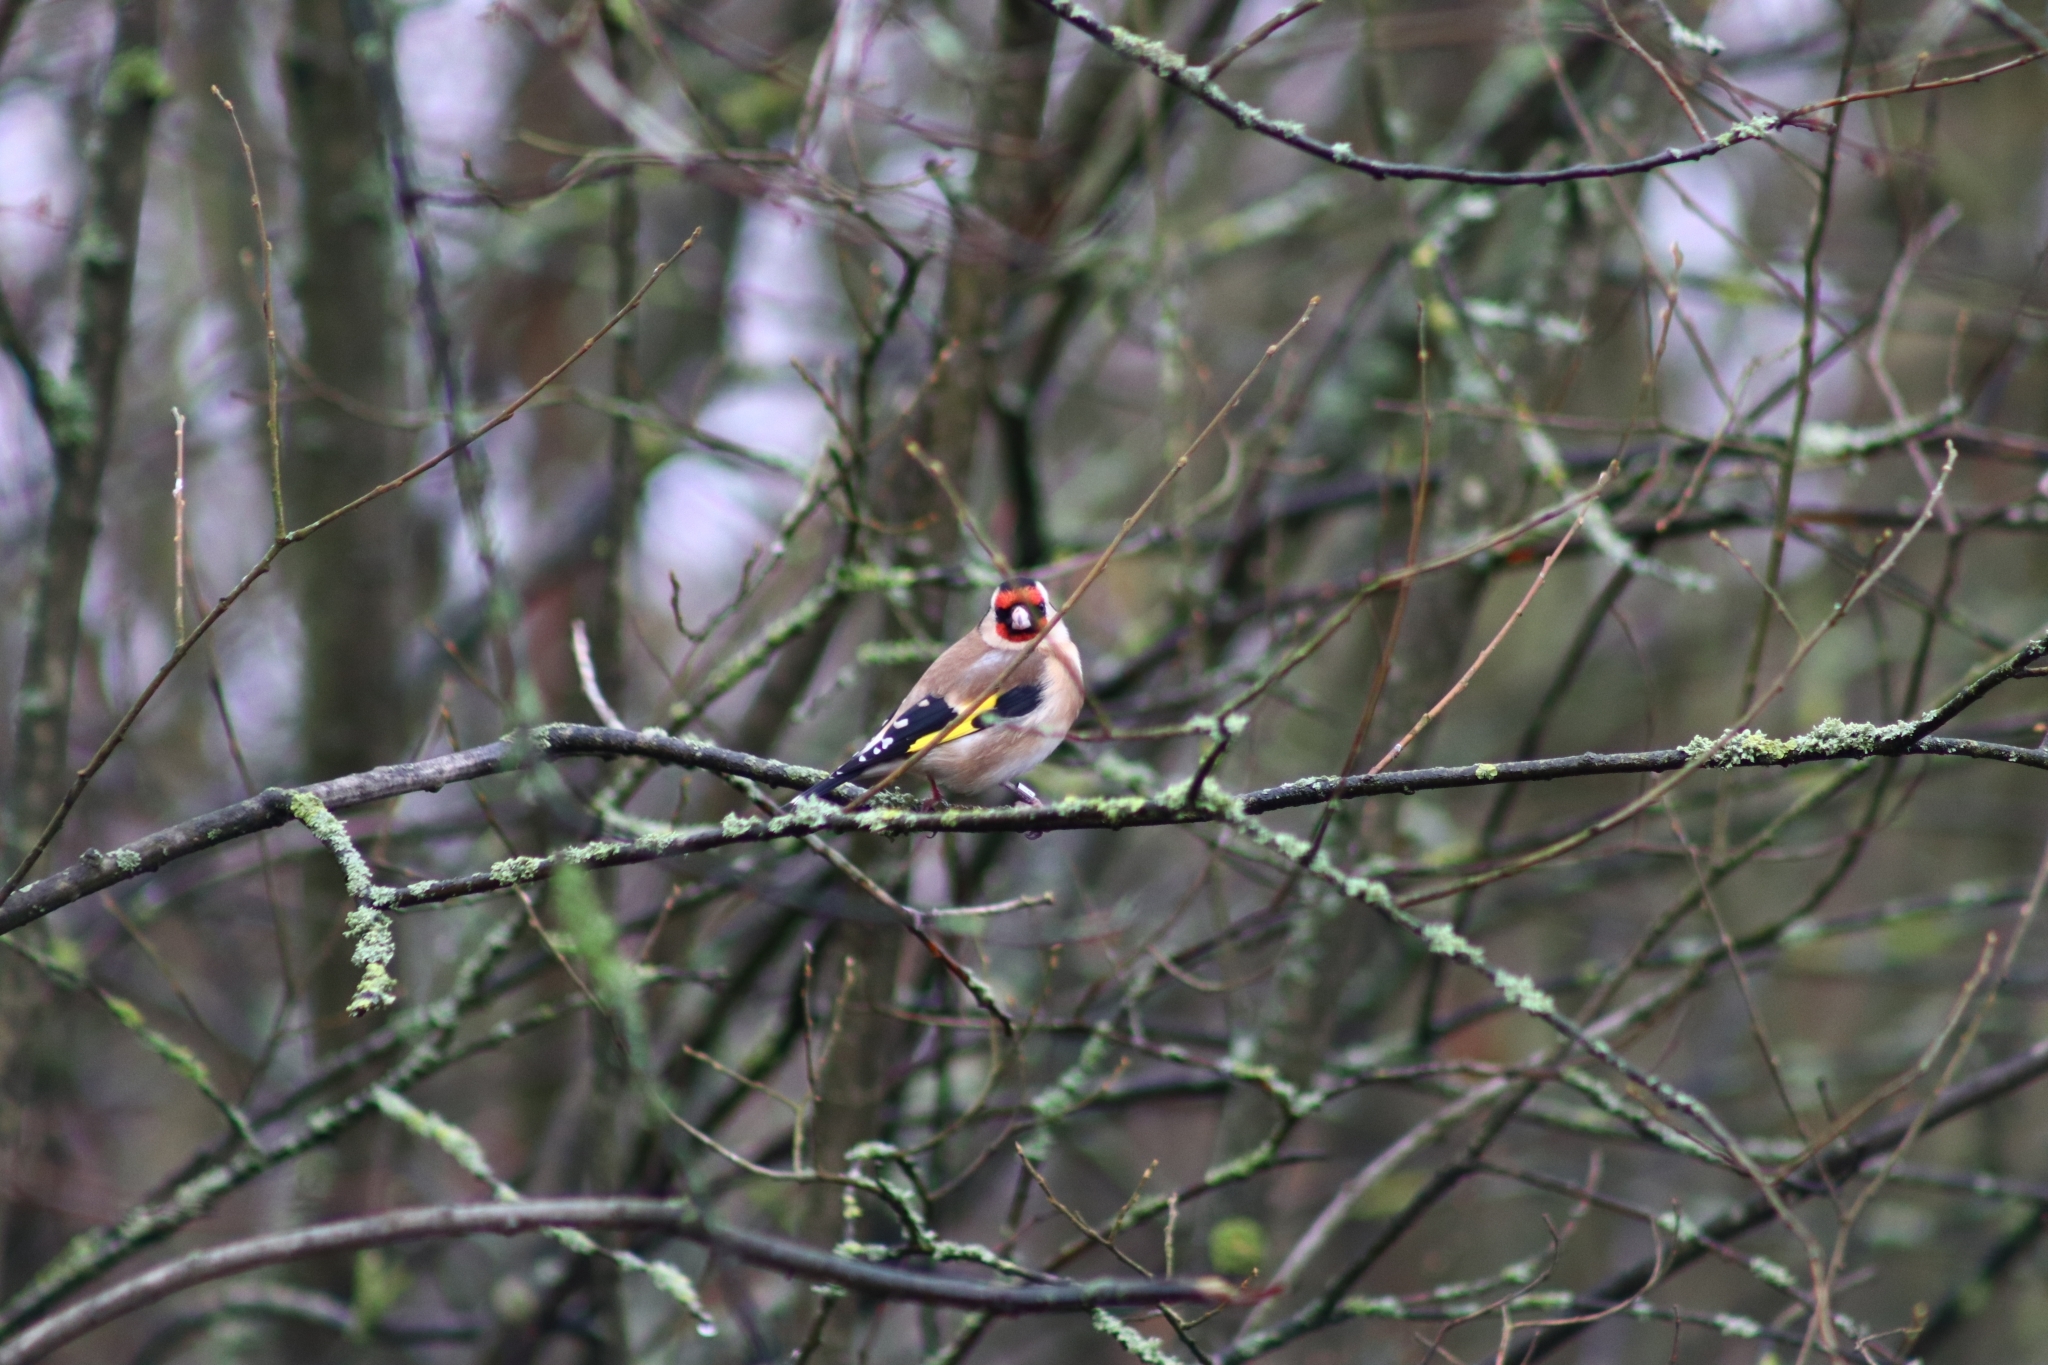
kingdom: Animalia
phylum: Chordata
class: Aves
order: Passeriformes
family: Fringillidae
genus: Carduelis
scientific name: Carduelis carduelis
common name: European goldfinch
